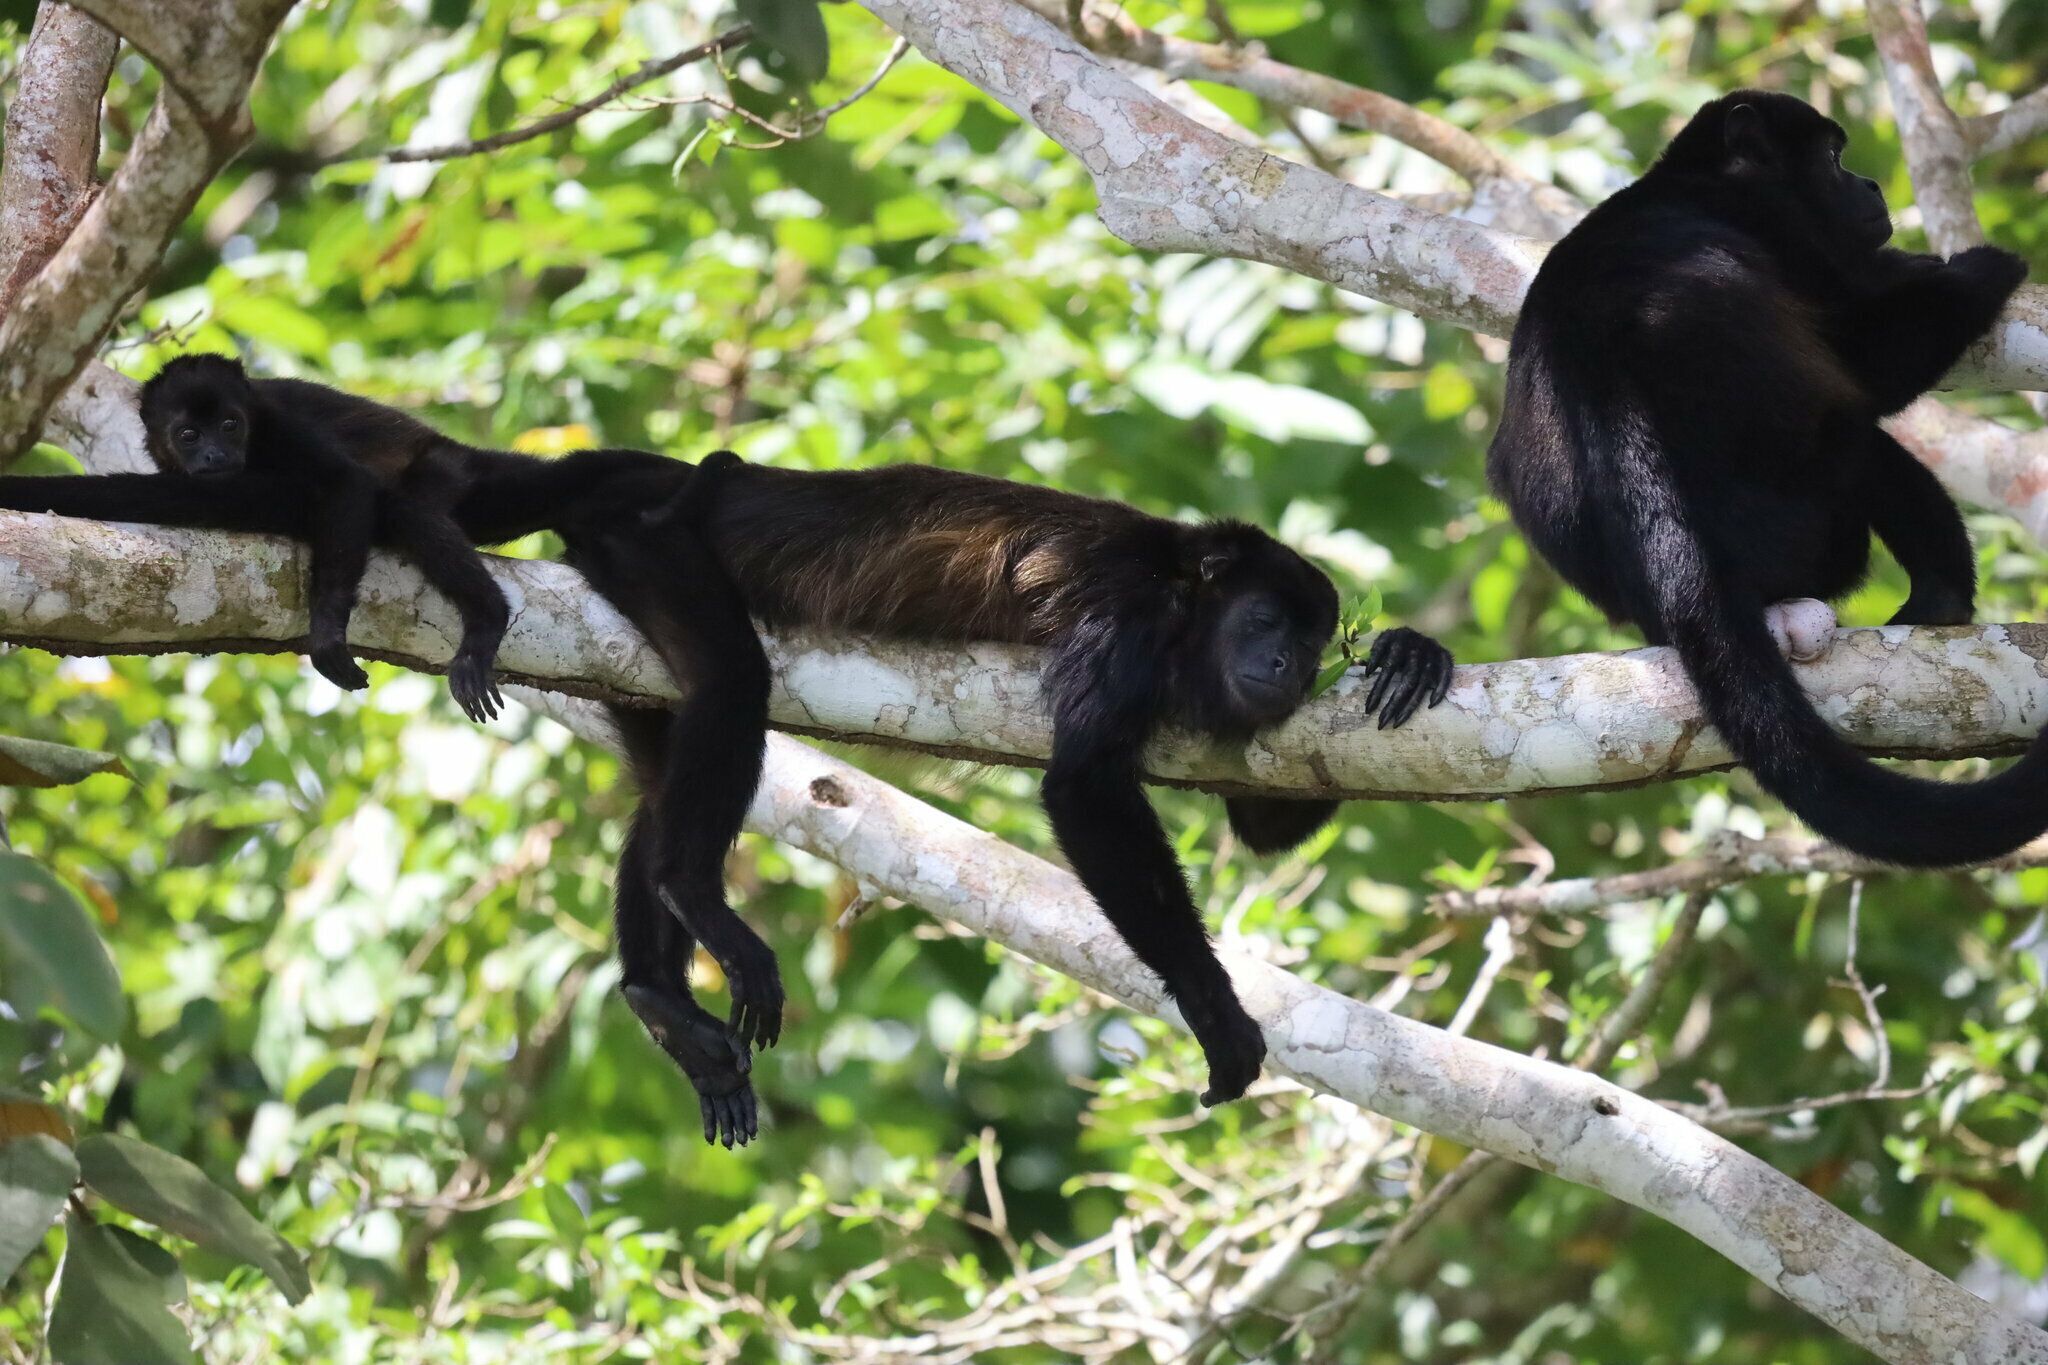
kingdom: Animalia
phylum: Chordata
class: Mammalia
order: Primates
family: Atelidae
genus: Alouatta
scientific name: Alouatta palliata
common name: Mantled howler
